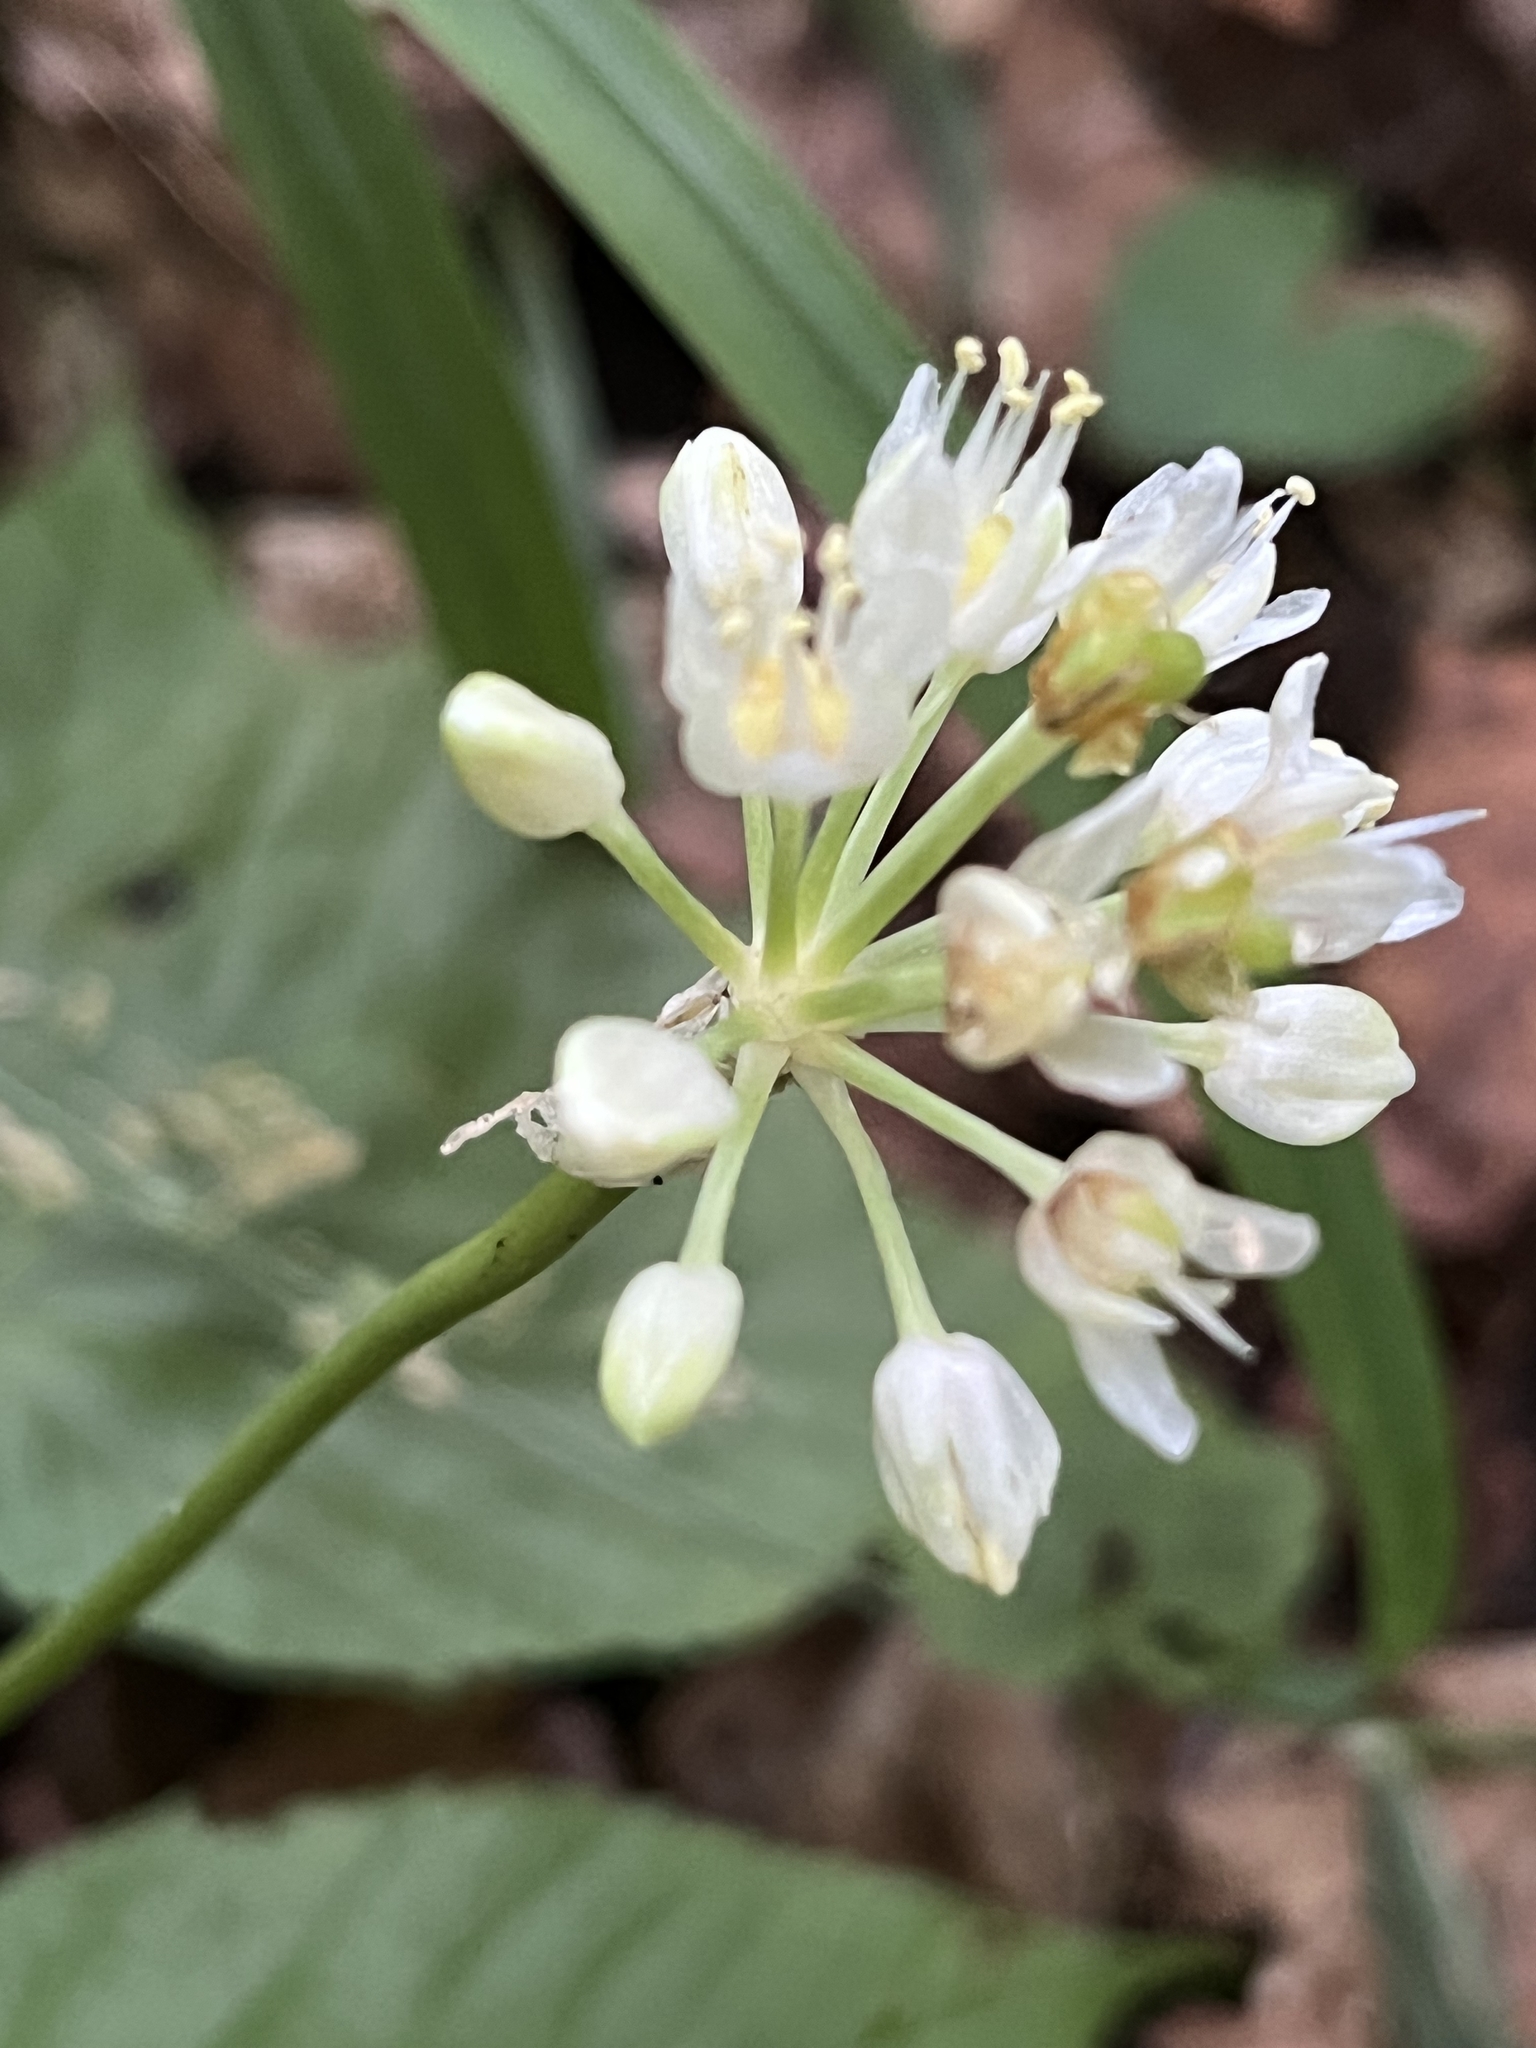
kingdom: Plantae
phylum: Tracheophyta
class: Liliopsida
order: Asparagales
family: Amaryllidaceae
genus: Allium
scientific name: Allium tricoccum
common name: Ramp
